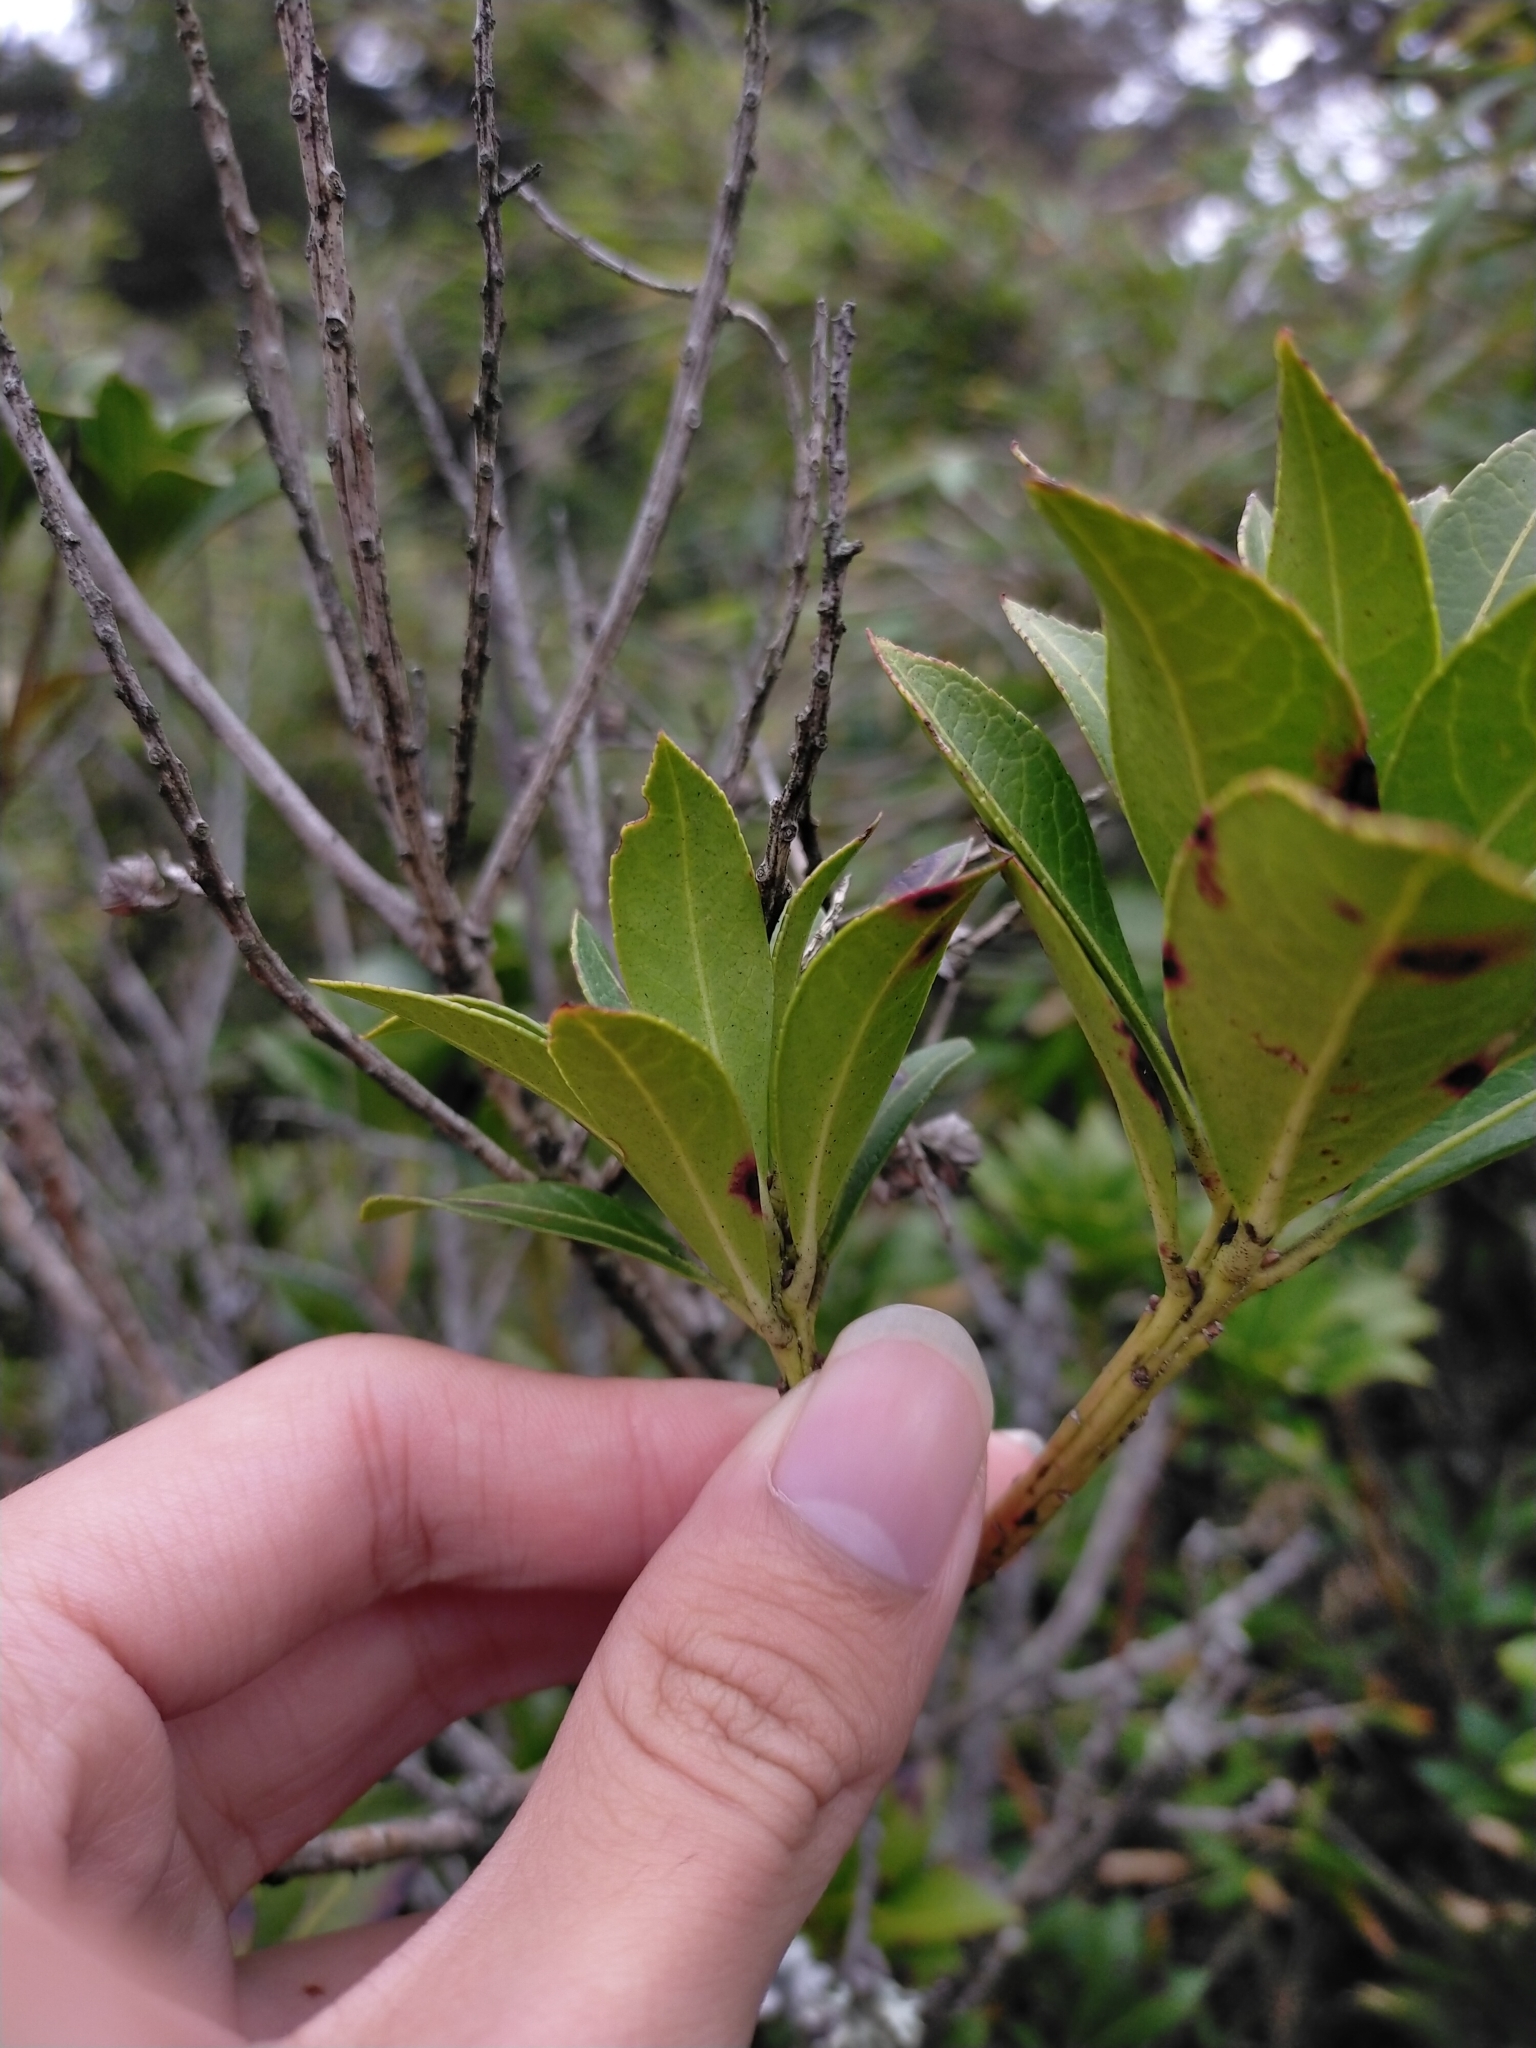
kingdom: Plantae
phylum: Tracheophyta
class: Magnoliopsida
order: Ericales
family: Ericaceae
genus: Pieris
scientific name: Pieris japonica
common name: Japanese pieris
